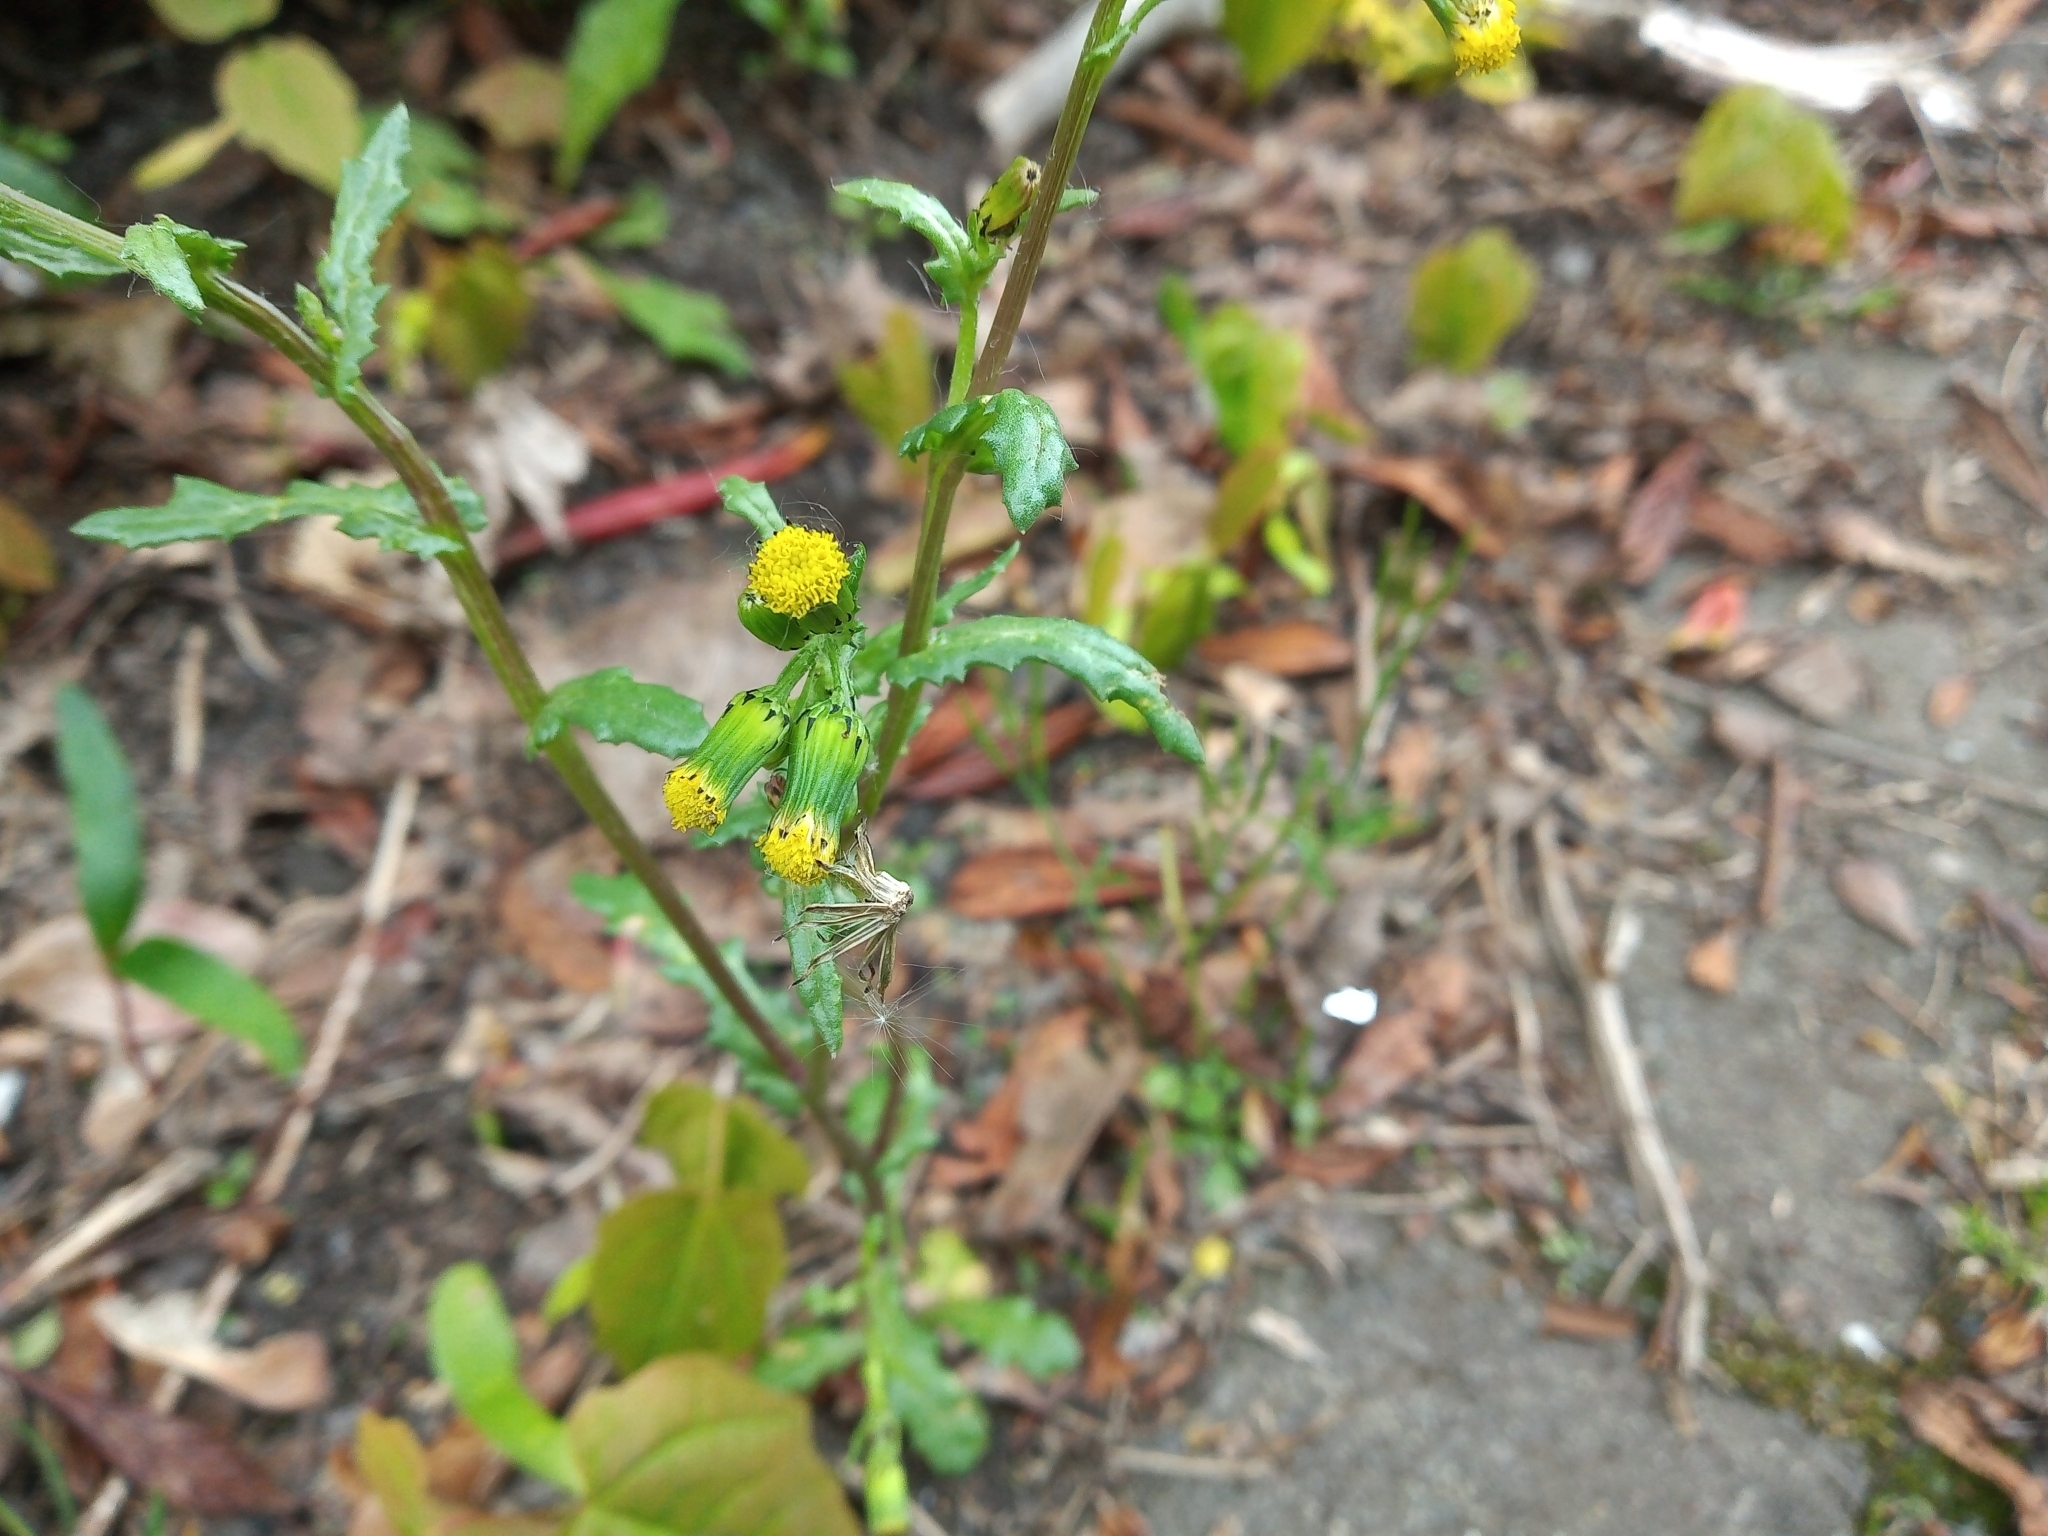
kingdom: Plantae
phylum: Tracheophyta
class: Magnoliopsida
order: Asterales
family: Asteraceae
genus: Senecio
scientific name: Senecio vulgaris
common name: Old-man-in-the-spring
